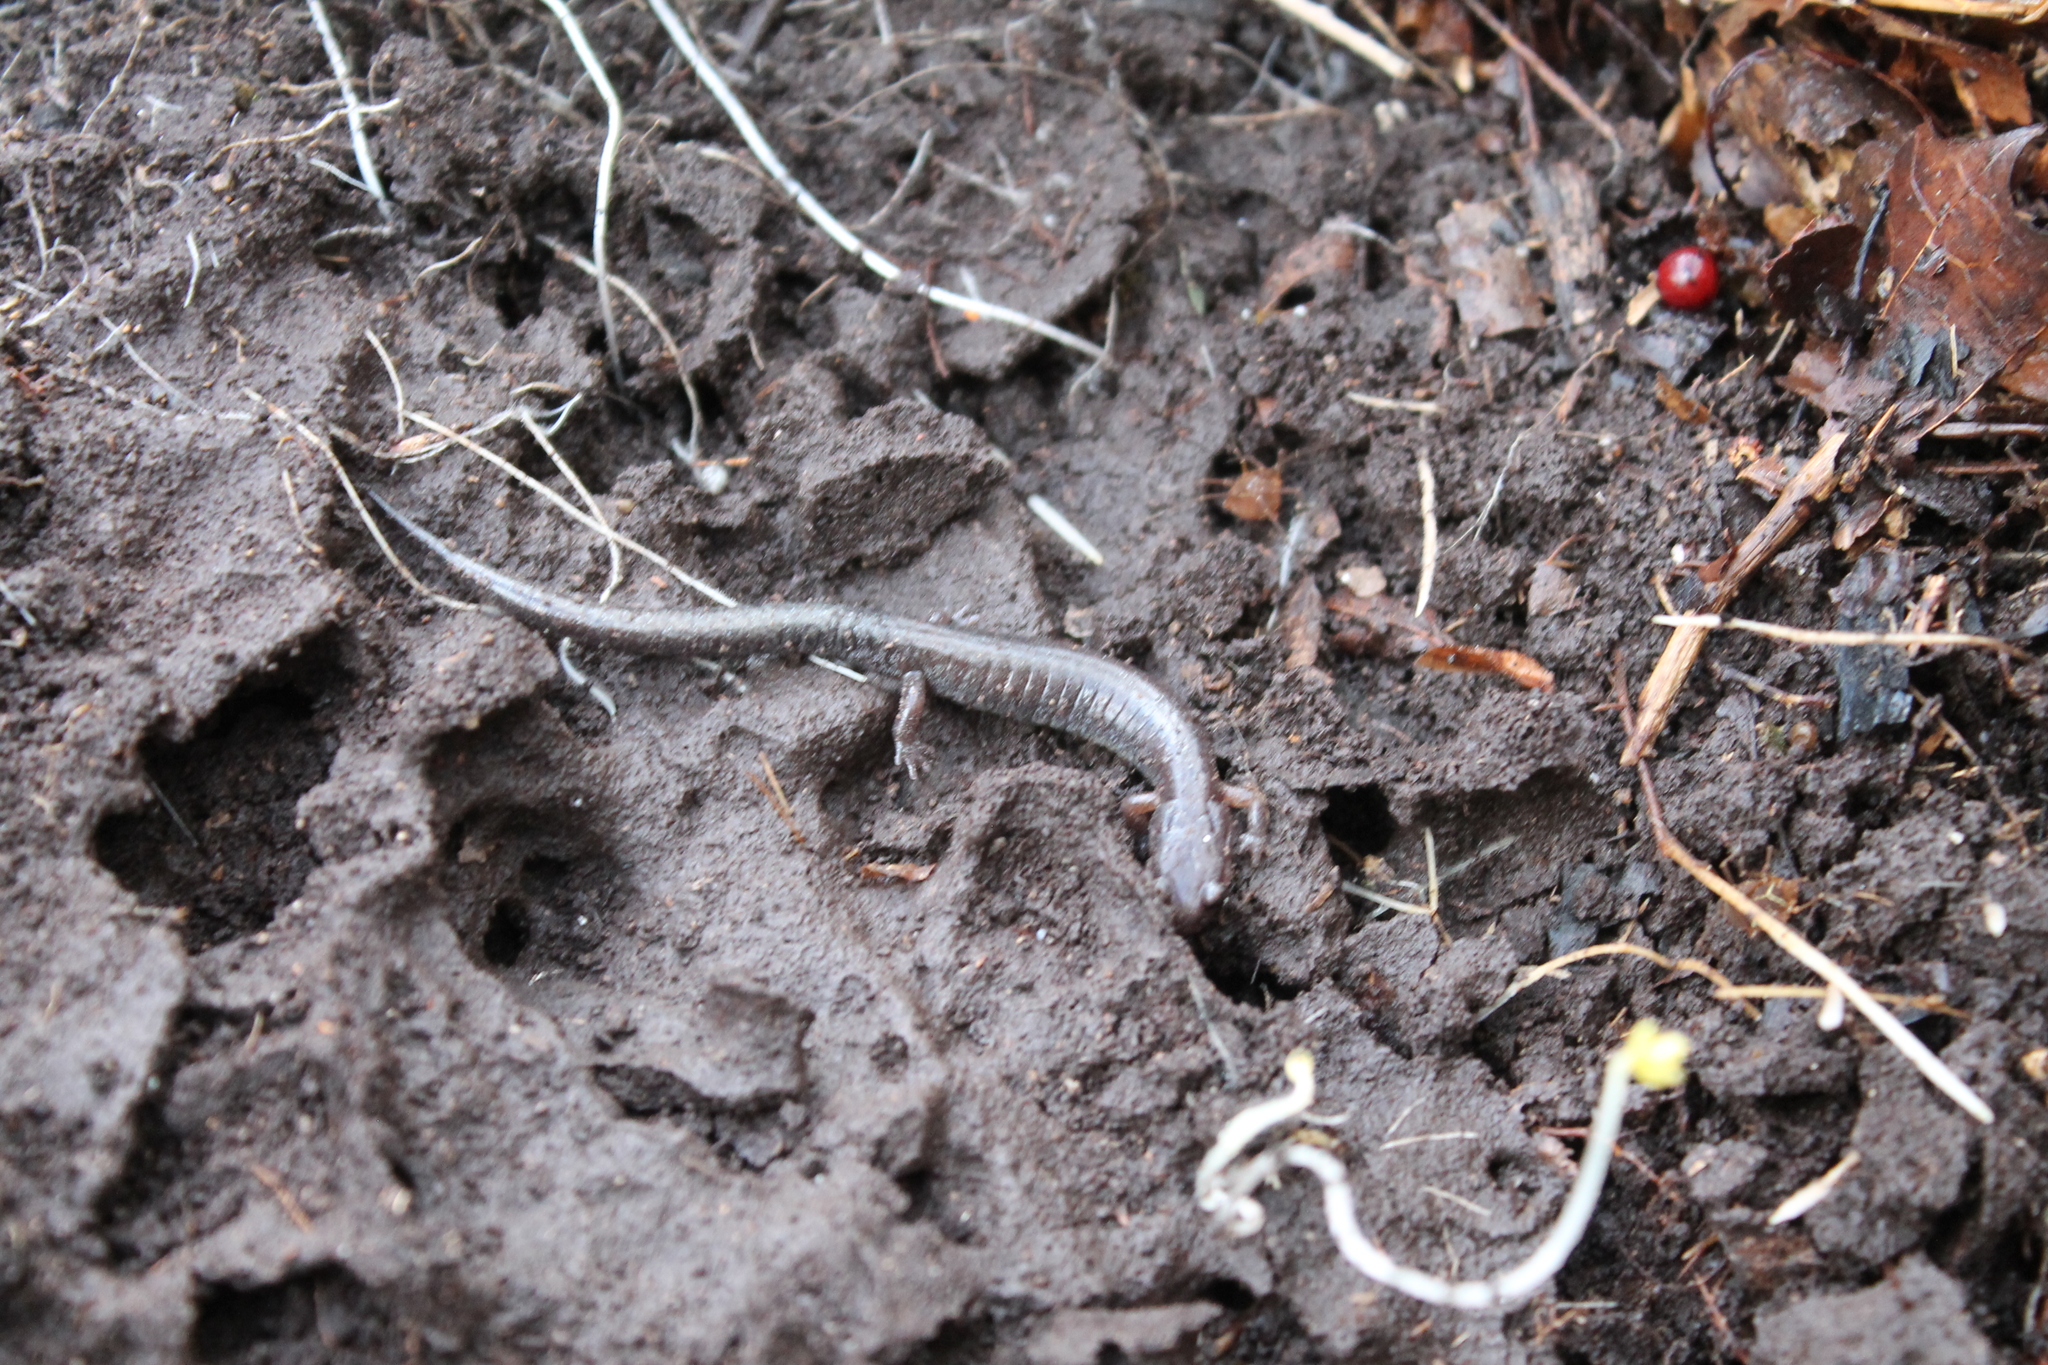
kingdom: Animalia
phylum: Chordata
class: Amphibia
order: Caudata
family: Plethodontidae
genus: Plethodon
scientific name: Plethodon dorsalis
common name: Northern zigzag salamander
